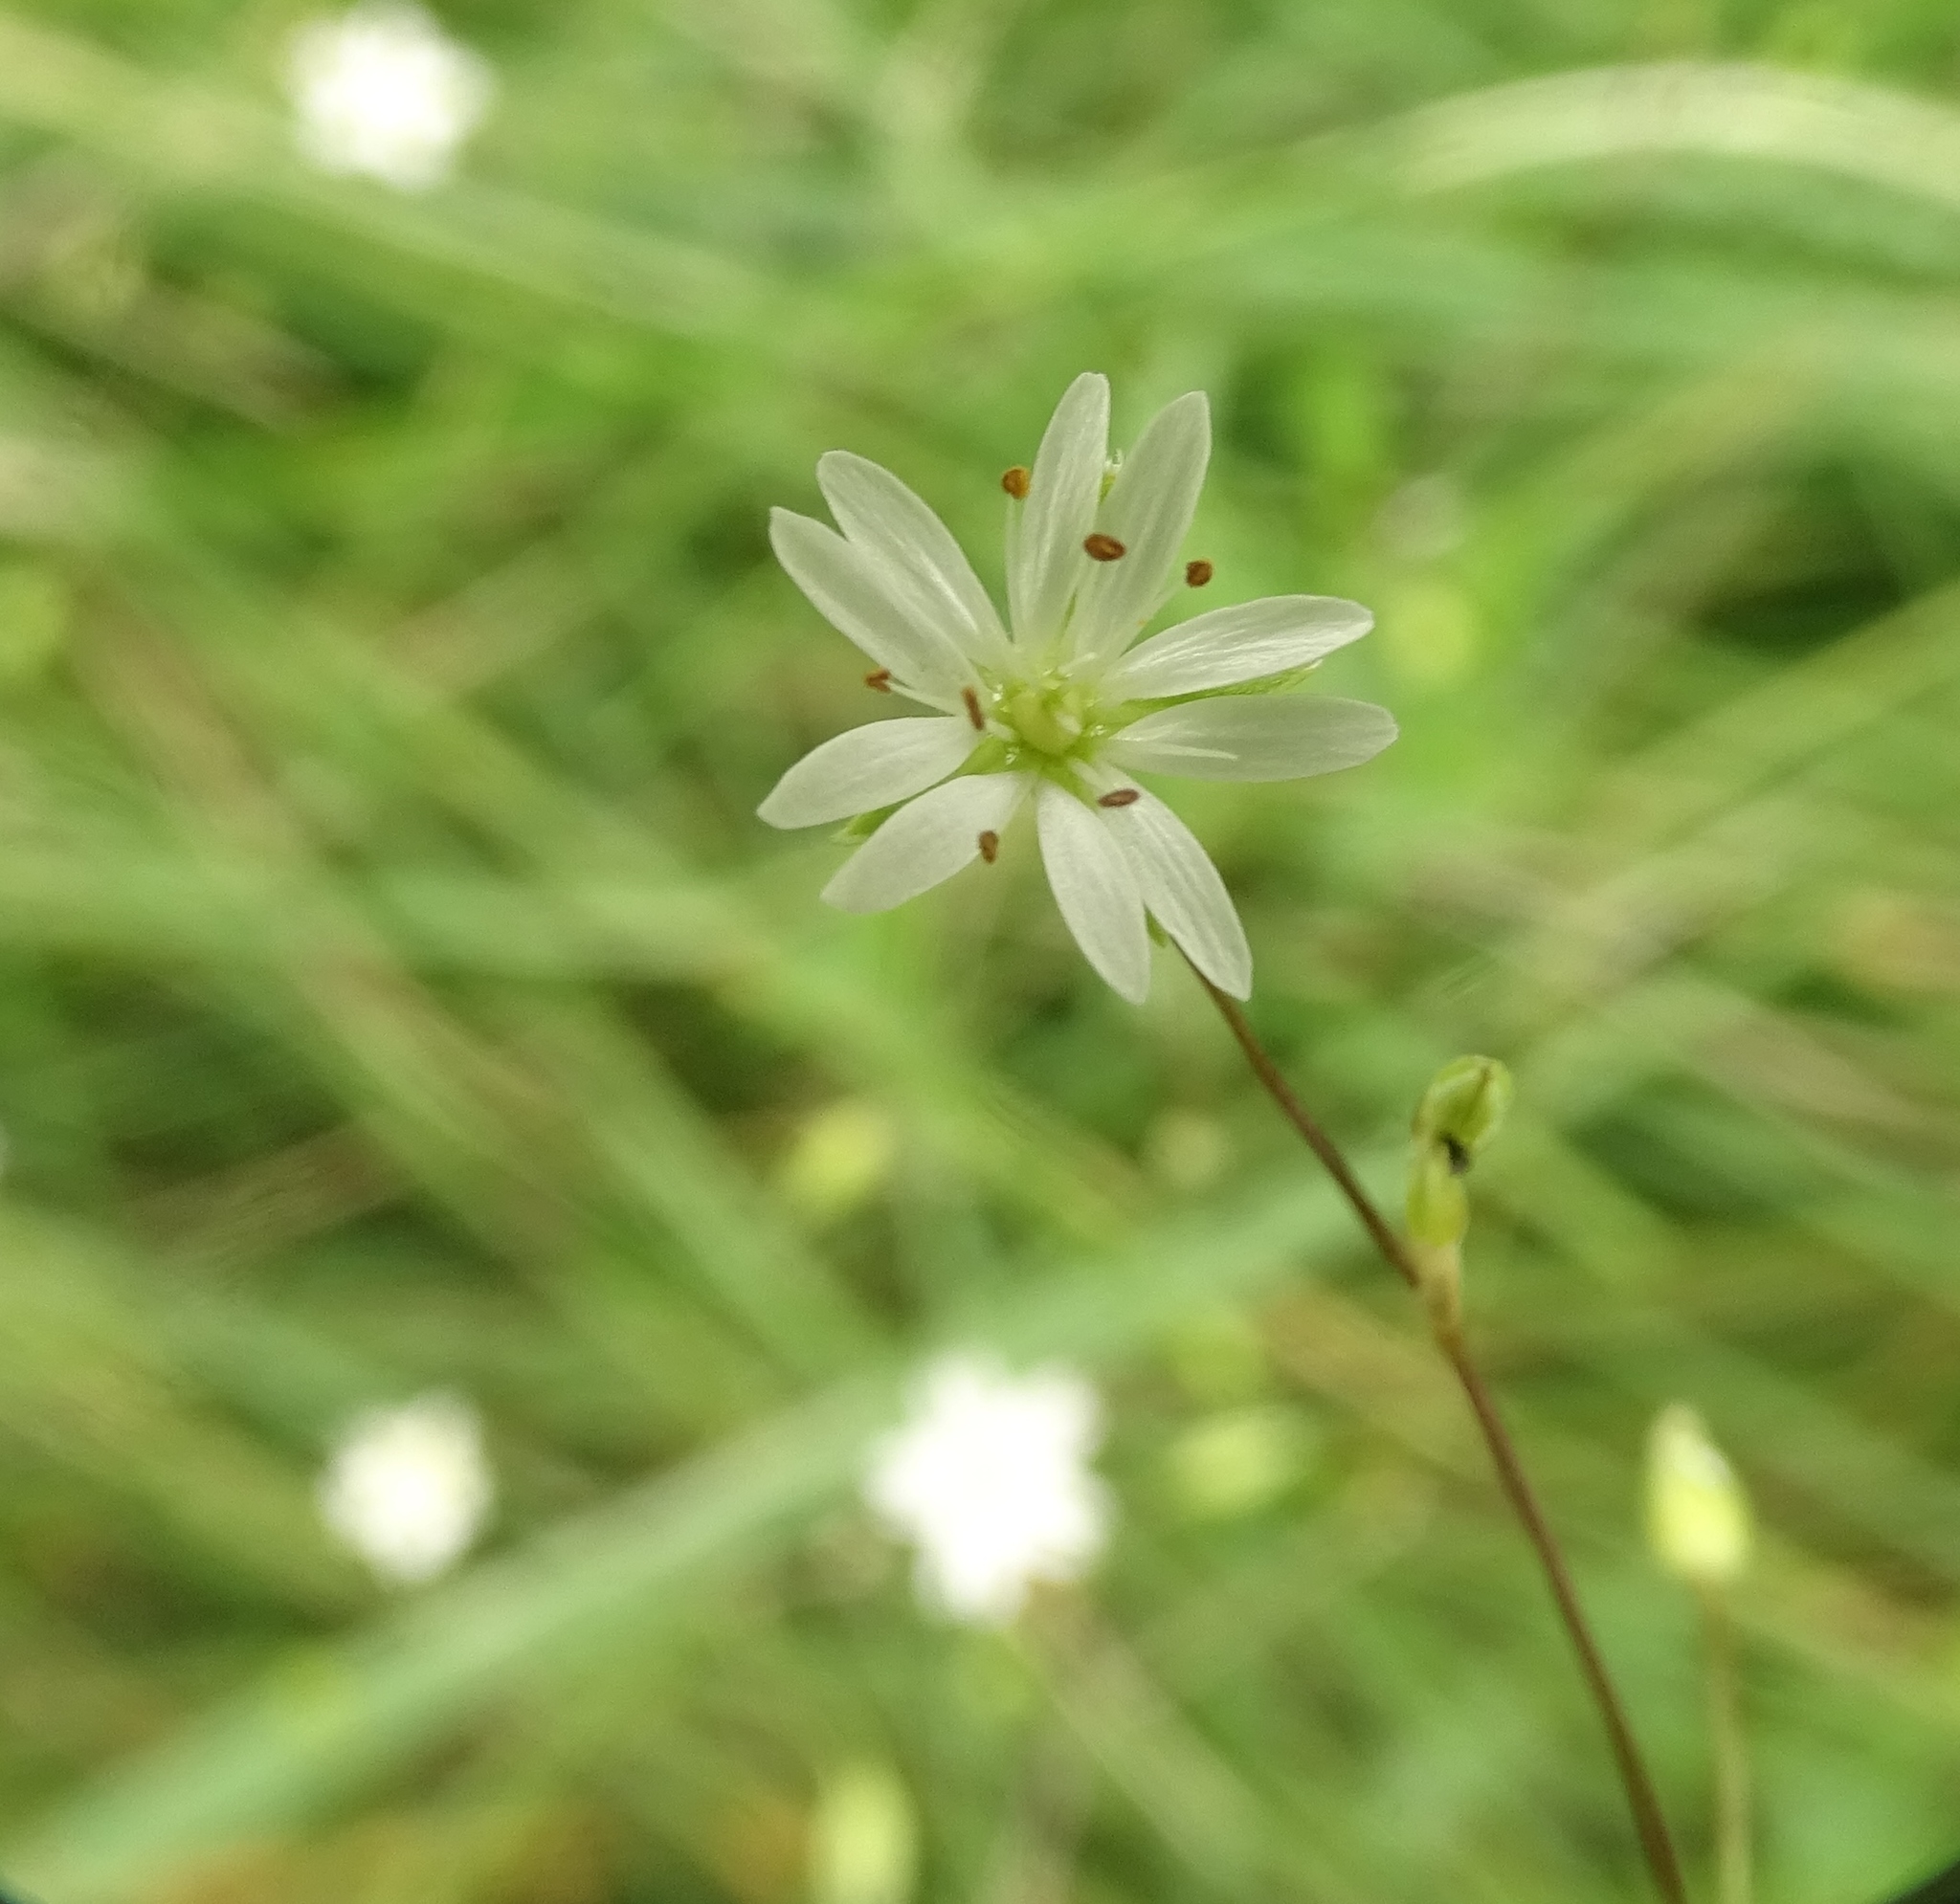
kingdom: Plantae
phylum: Tracheophyta
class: Magnoliopsida
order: Caryophyllales
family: Caryophyllaceae
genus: Stellaria
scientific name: Stellaria graminea
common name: Grass-like starwort
